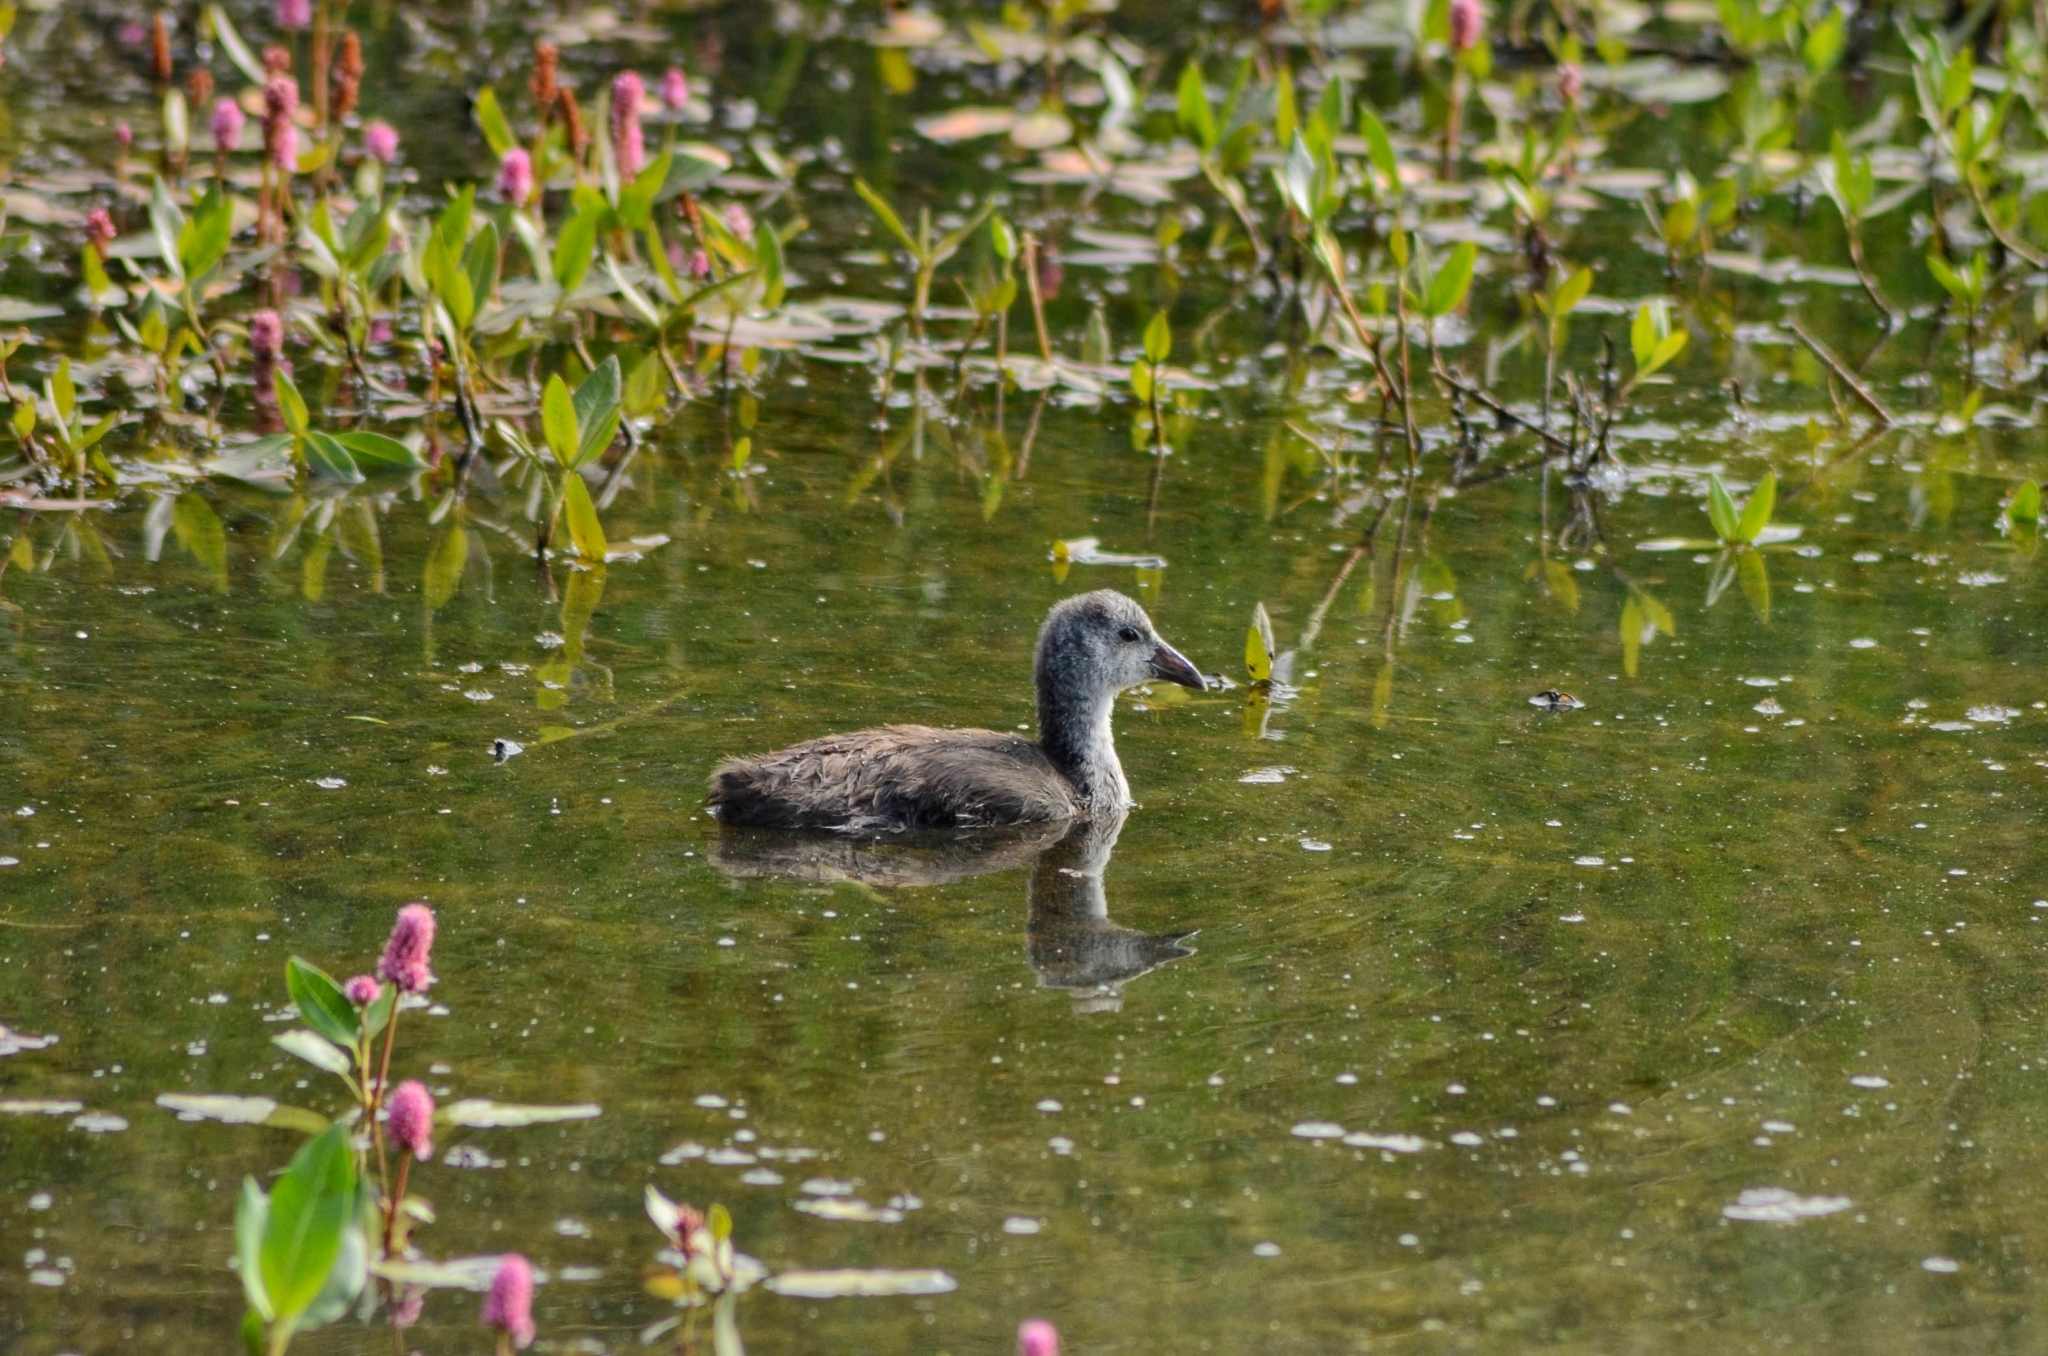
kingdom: Animalia
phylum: Chordata
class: Aves
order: Gruiformes
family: Rallidae
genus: Fulica
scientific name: Fulica americana
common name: American coot
